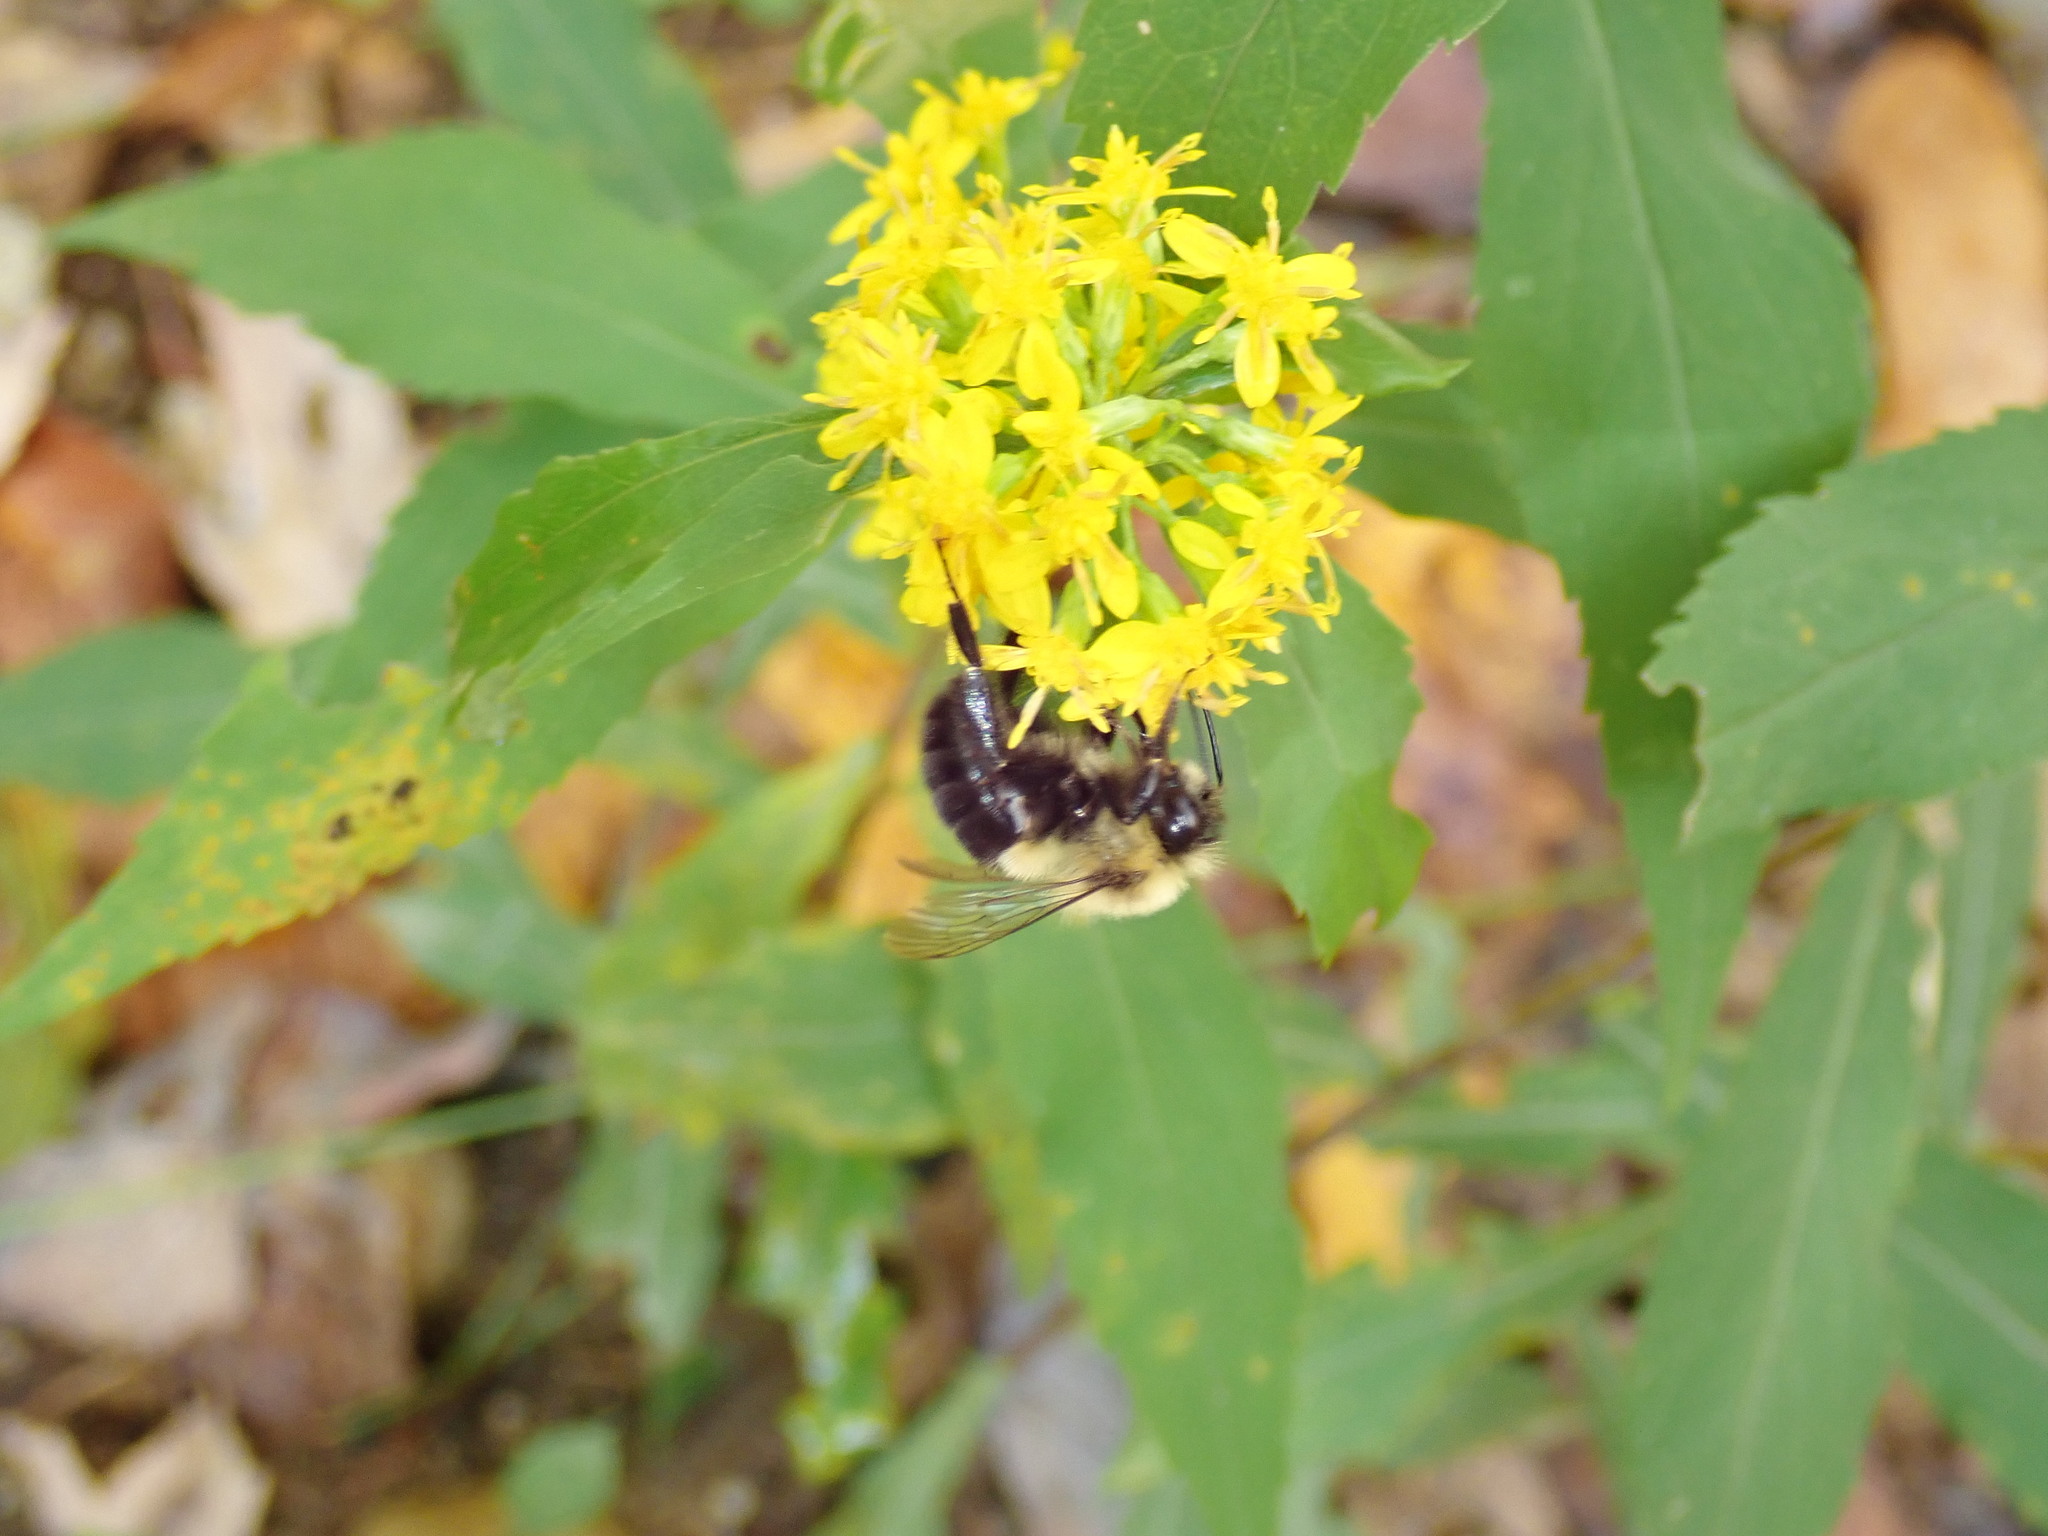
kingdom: Animalia
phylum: Arthropoda
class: Insecta
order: Hymenoptera
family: Apidae
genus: Bombus
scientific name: Bombus impatiens
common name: Common eastern bumble bee
